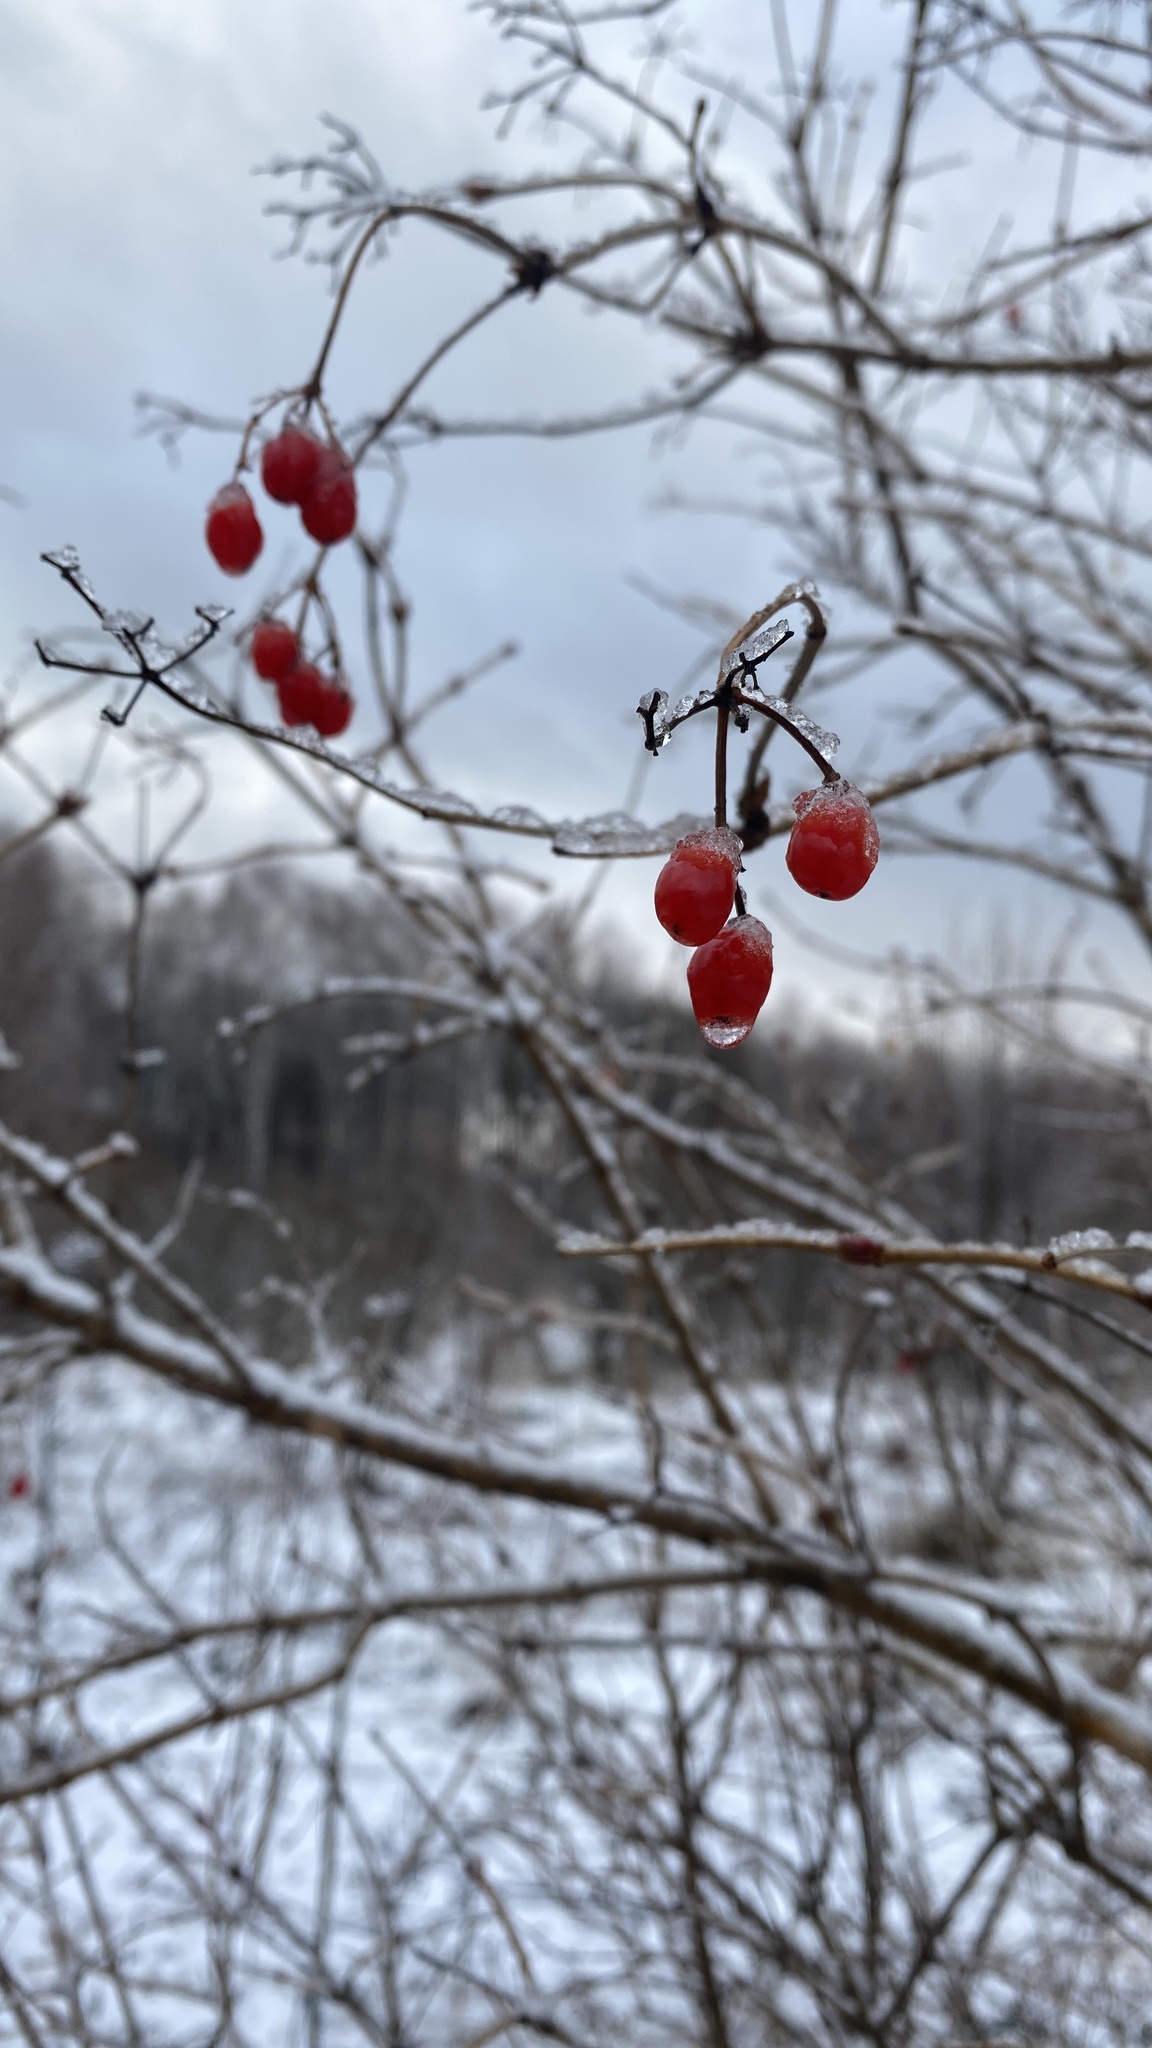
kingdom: Plantae
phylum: Tracheophyta
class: Magnoliopsida
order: Dipsacales
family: Viburnaceae
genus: Viburnum
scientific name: Viburnum opulus
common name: Guelder-rose
